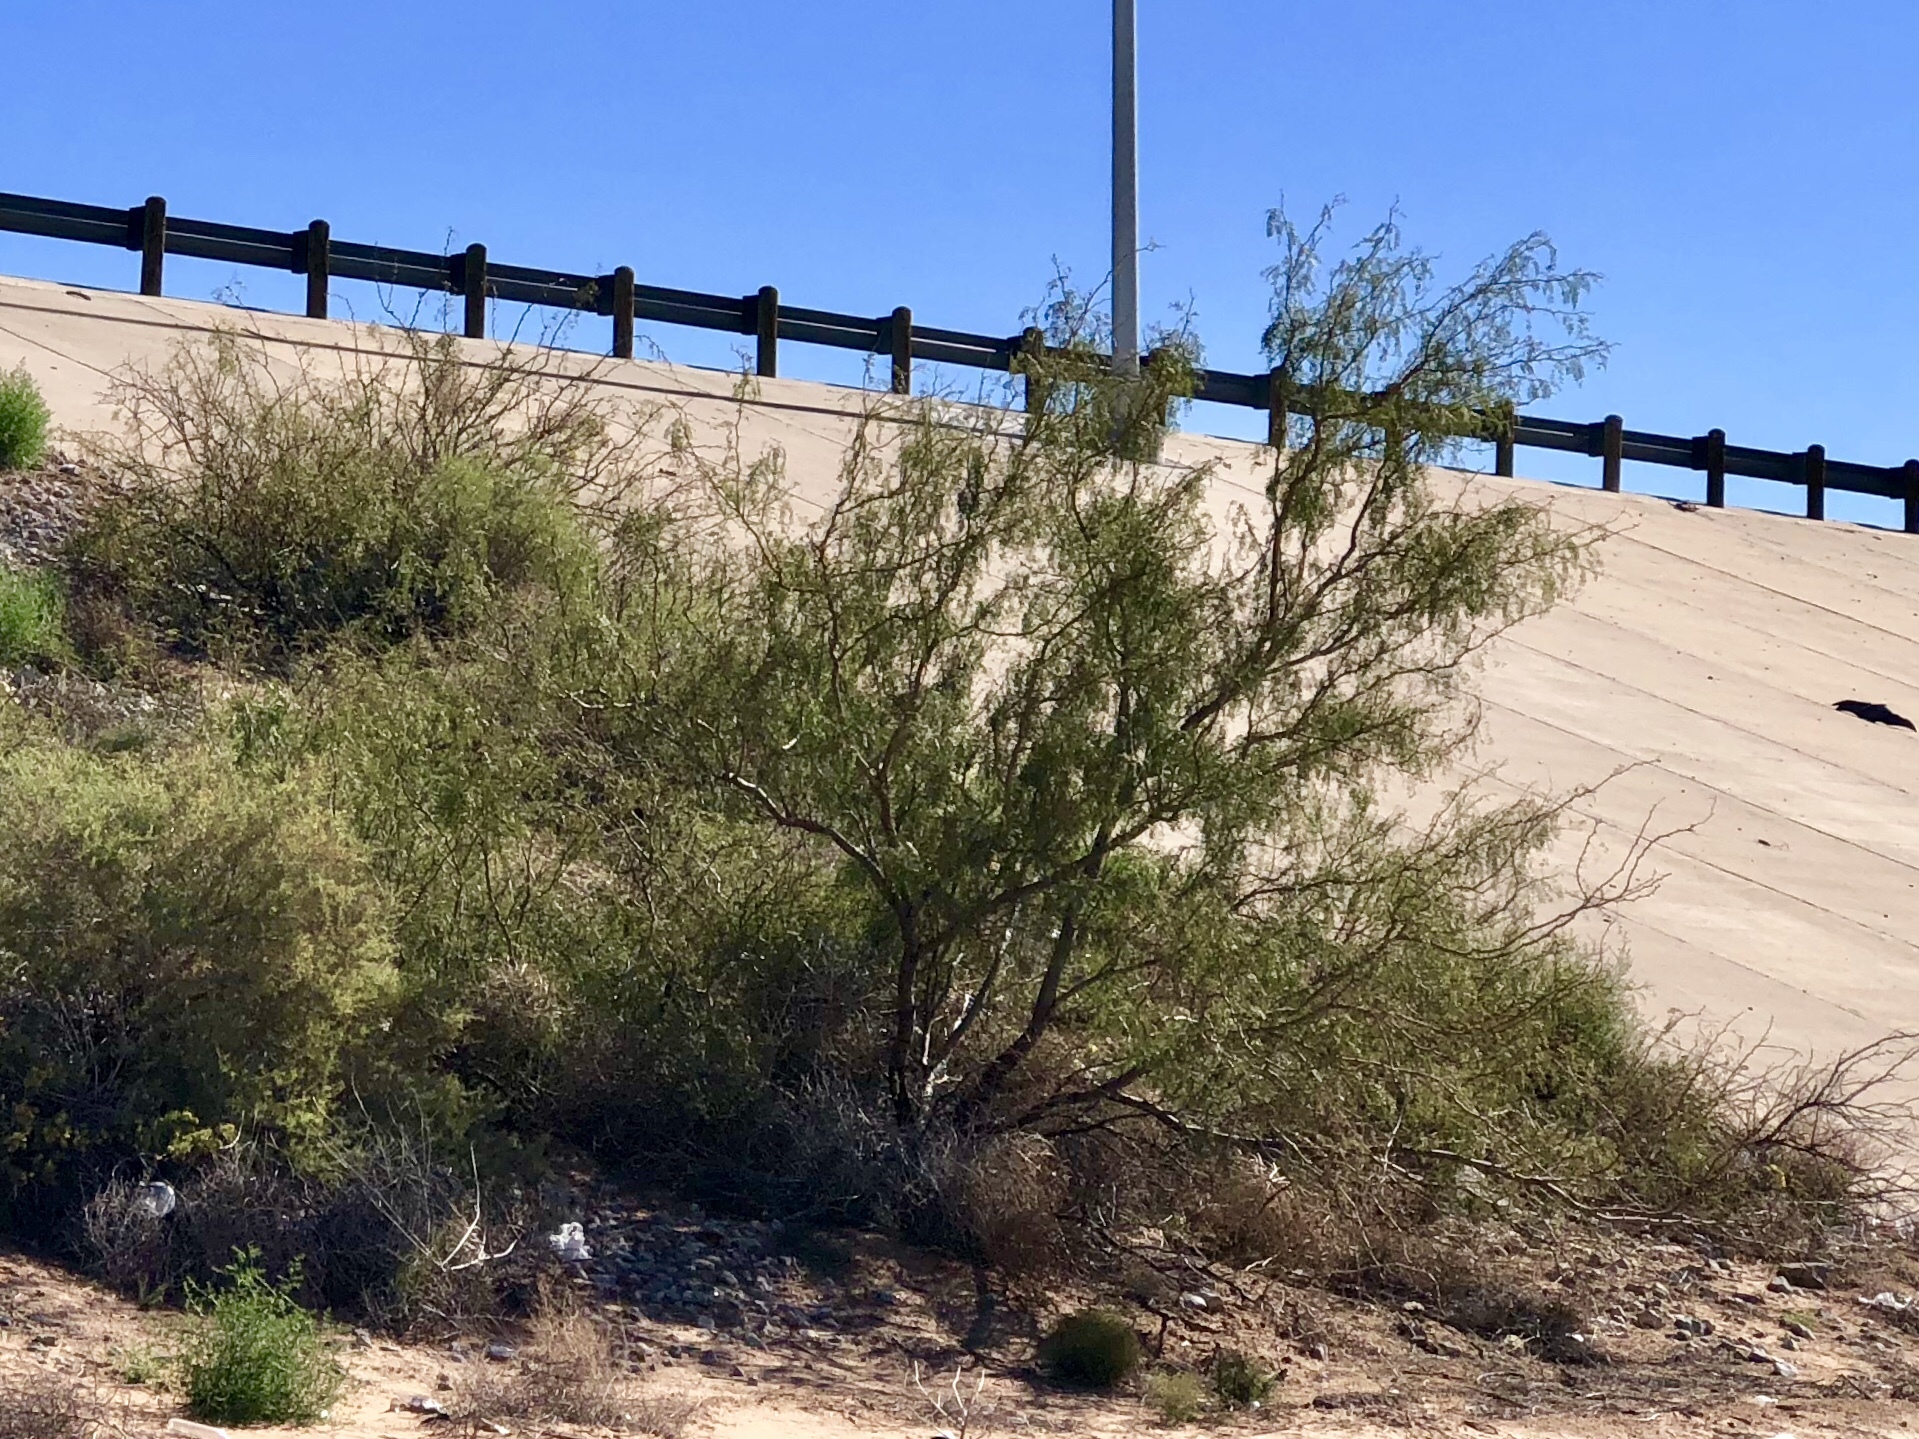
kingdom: Plantae
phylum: Tracheophyta
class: Magnoliopsida
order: Fabales
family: Fabaceae
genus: Parkinsonia
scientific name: Parkinsonia aculeata
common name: Jerusalem thorn
